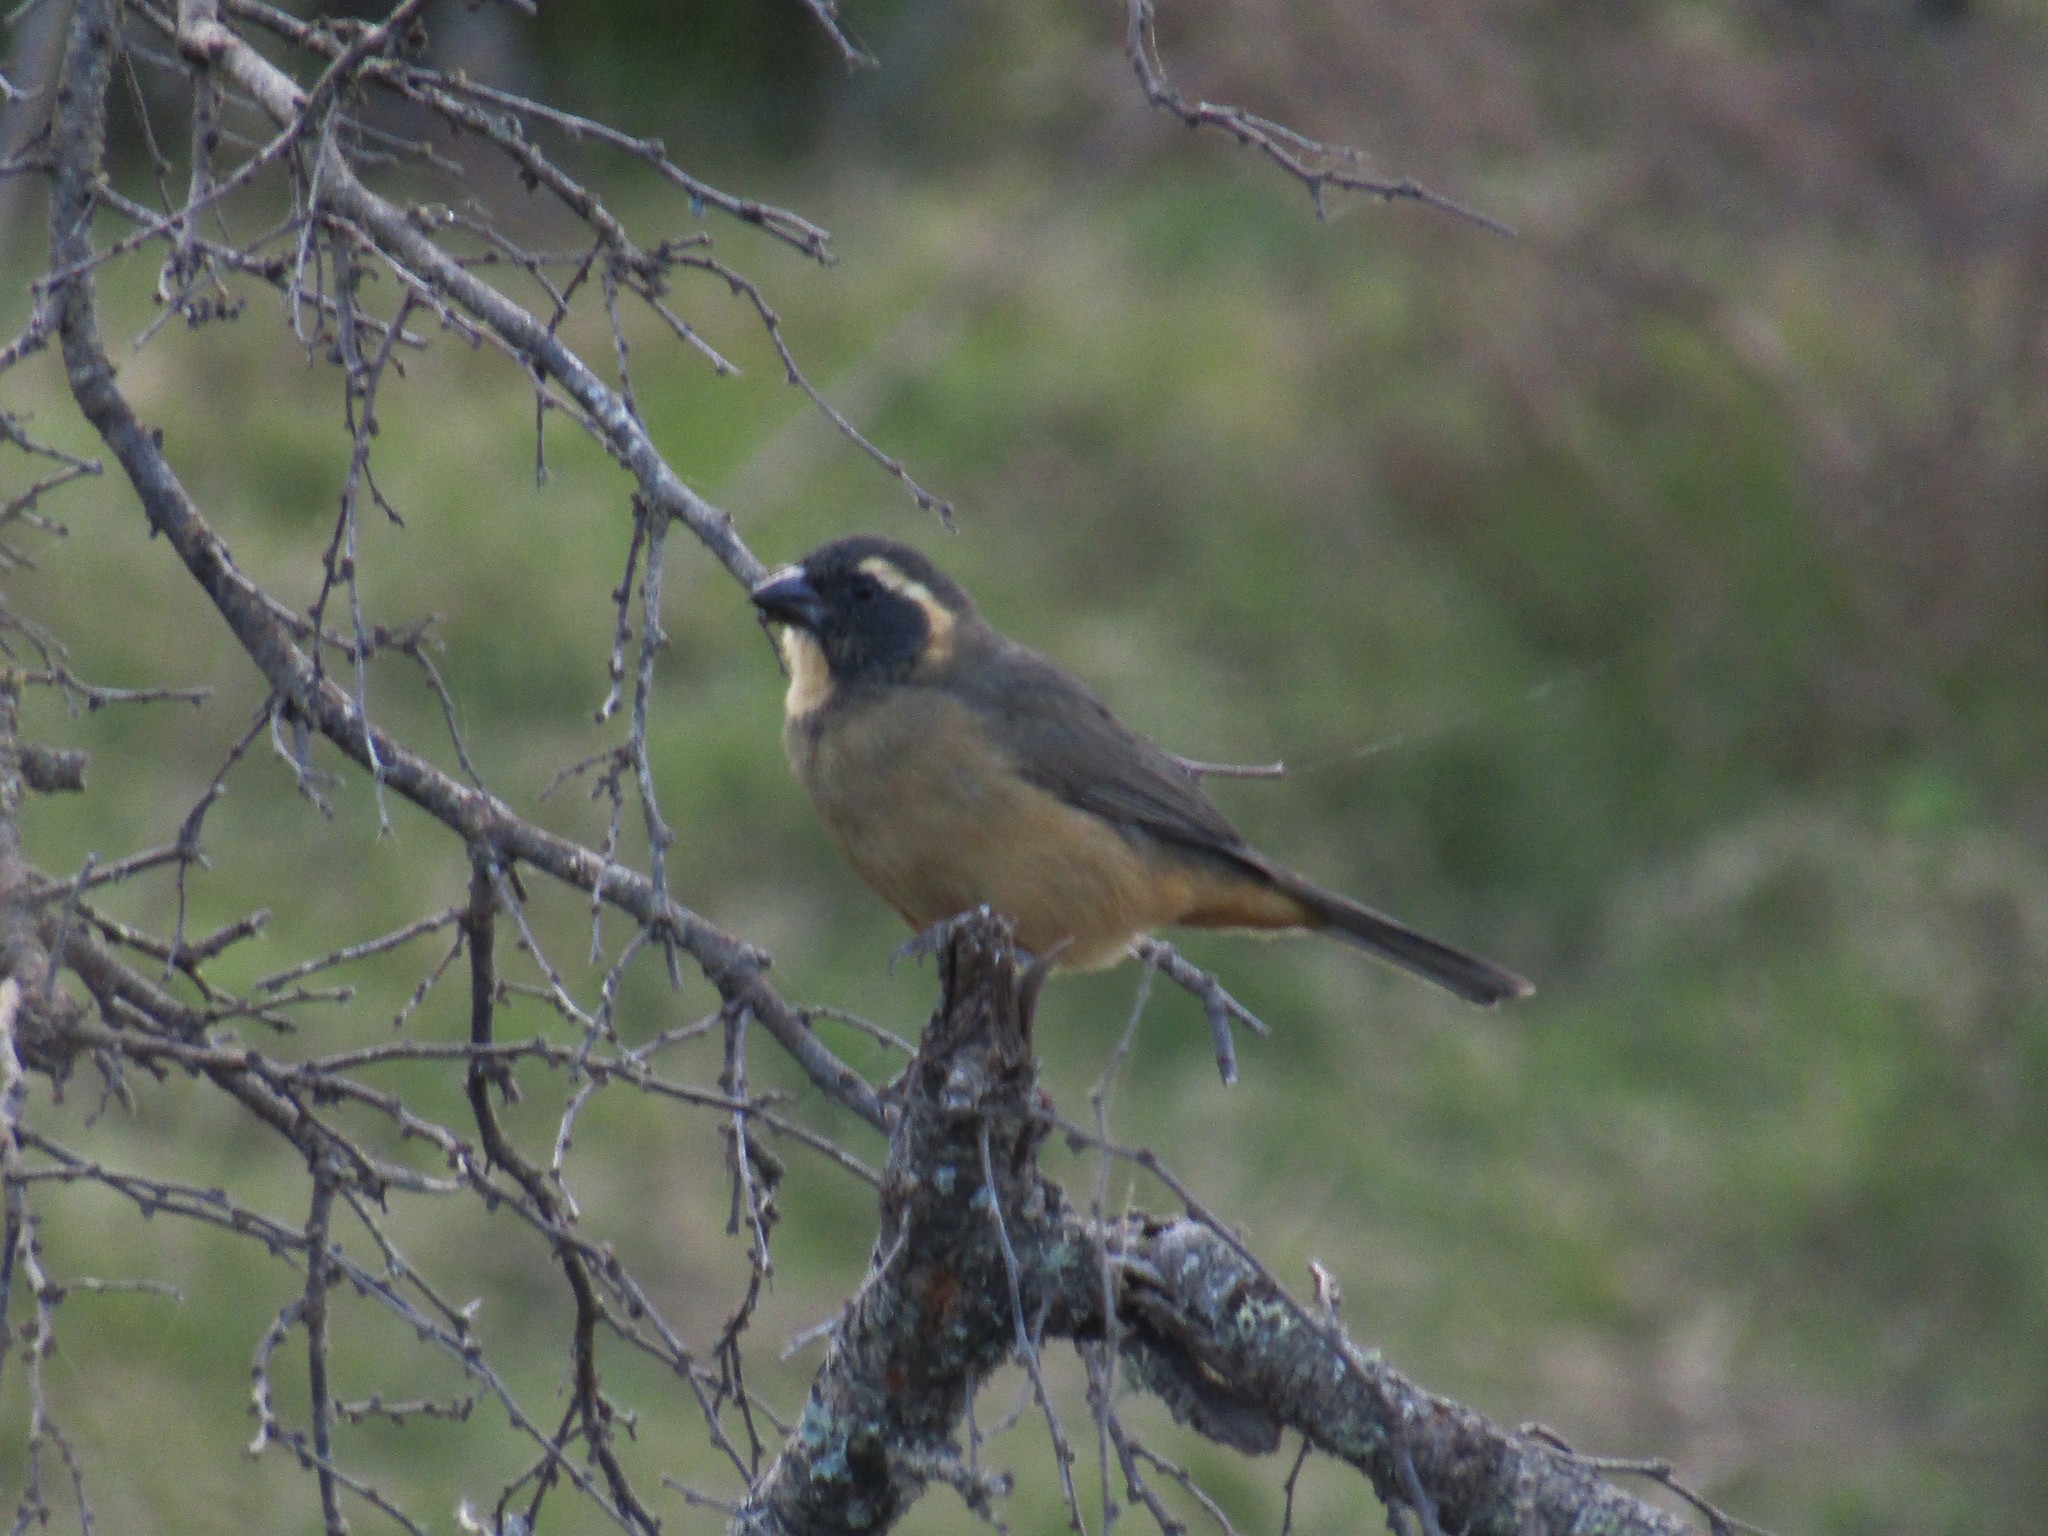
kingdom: Animalia
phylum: Chordata
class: Aves
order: Passeriformes
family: Thraupidae
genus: Saltator
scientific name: Saltator aurantiirostris
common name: Golden-billed saltator
